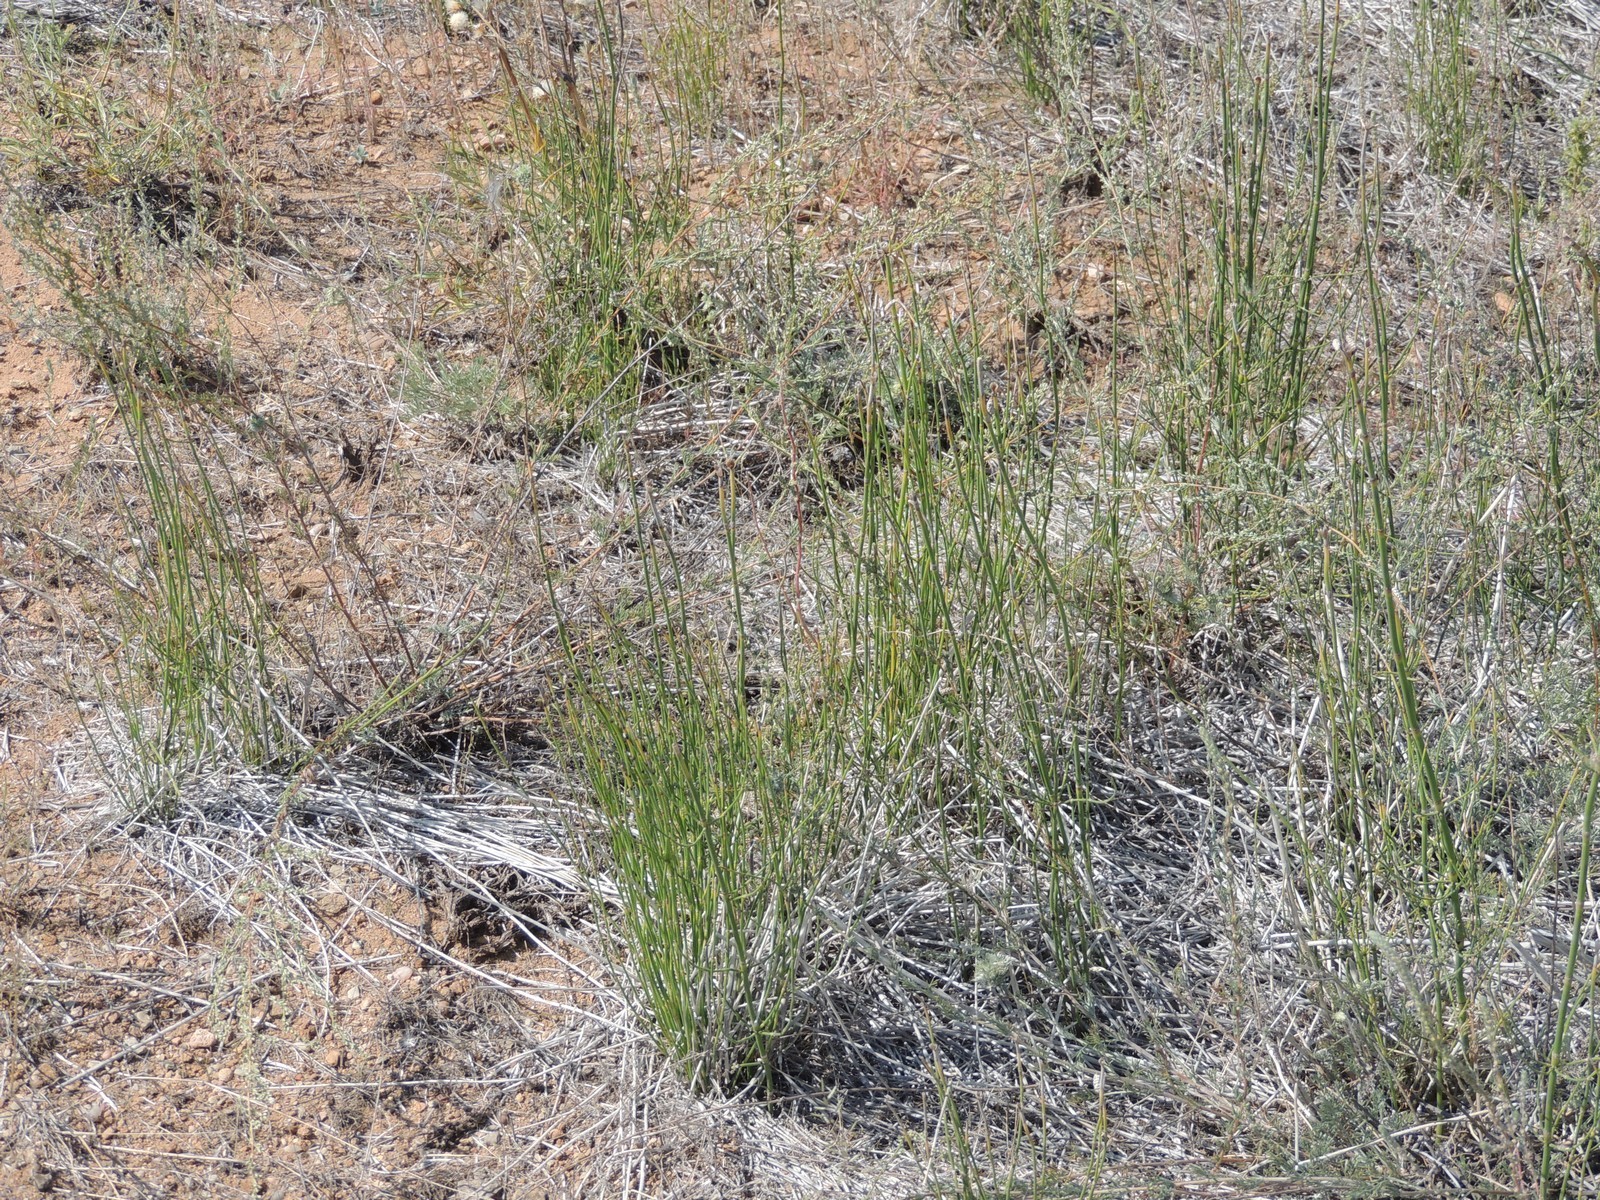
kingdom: Plantae
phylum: Tracheophyta
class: Polypodiopsida
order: Equisetales
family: Equisetaceae
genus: Equisetum
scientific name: Equisetum ramosissimum
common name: Branched horsetail
